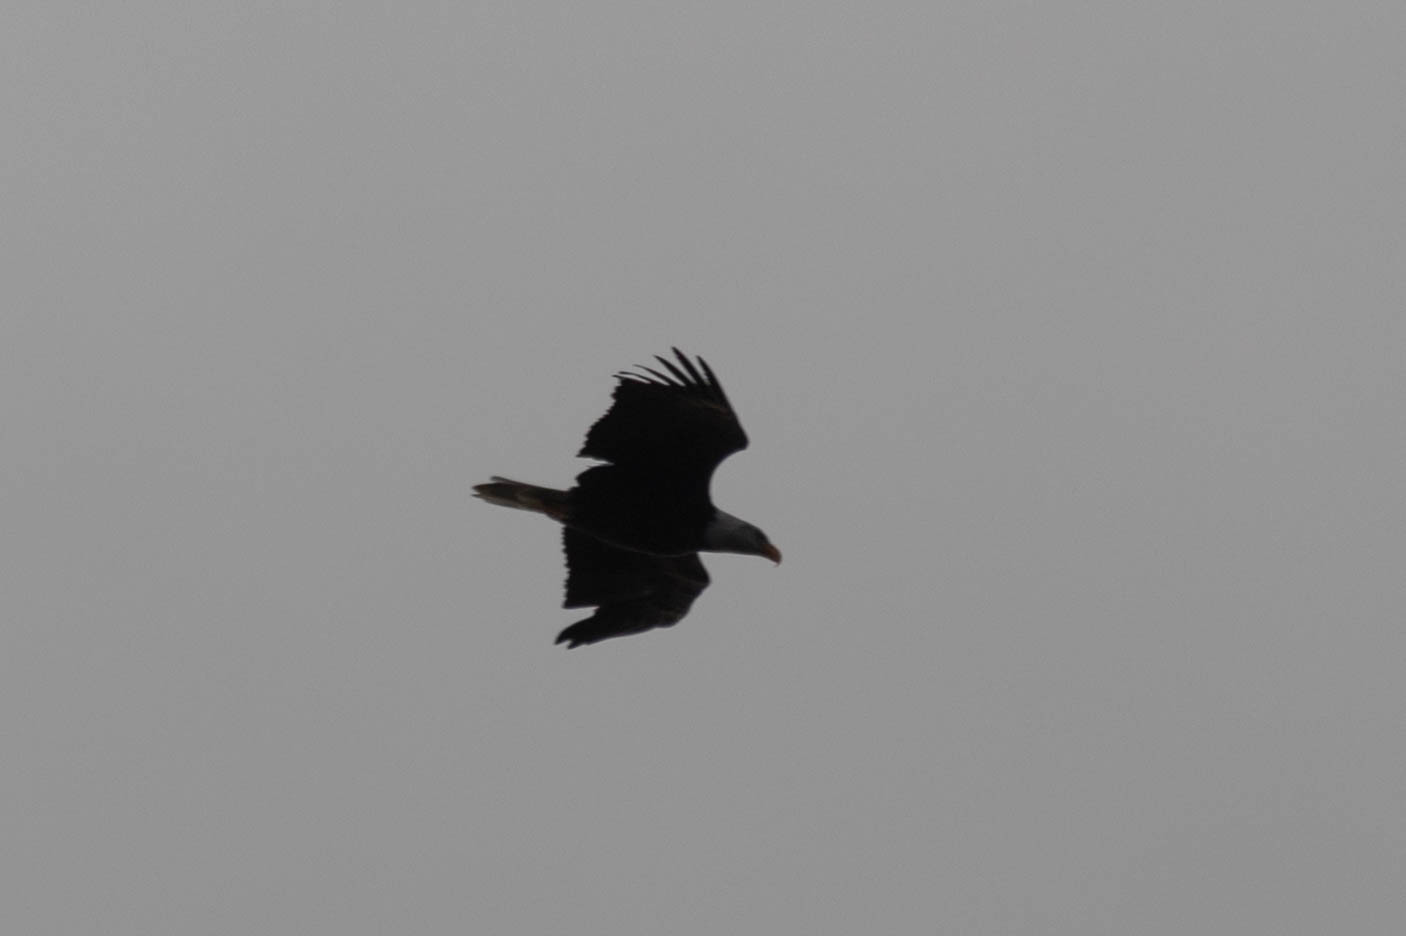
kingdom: Animalia
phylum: Chordata
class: Aves
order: Accipitriformes
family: Accipitridae
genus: Haliaeetus
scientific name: Haliaeetus leucocephalus
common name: Bald eagle
